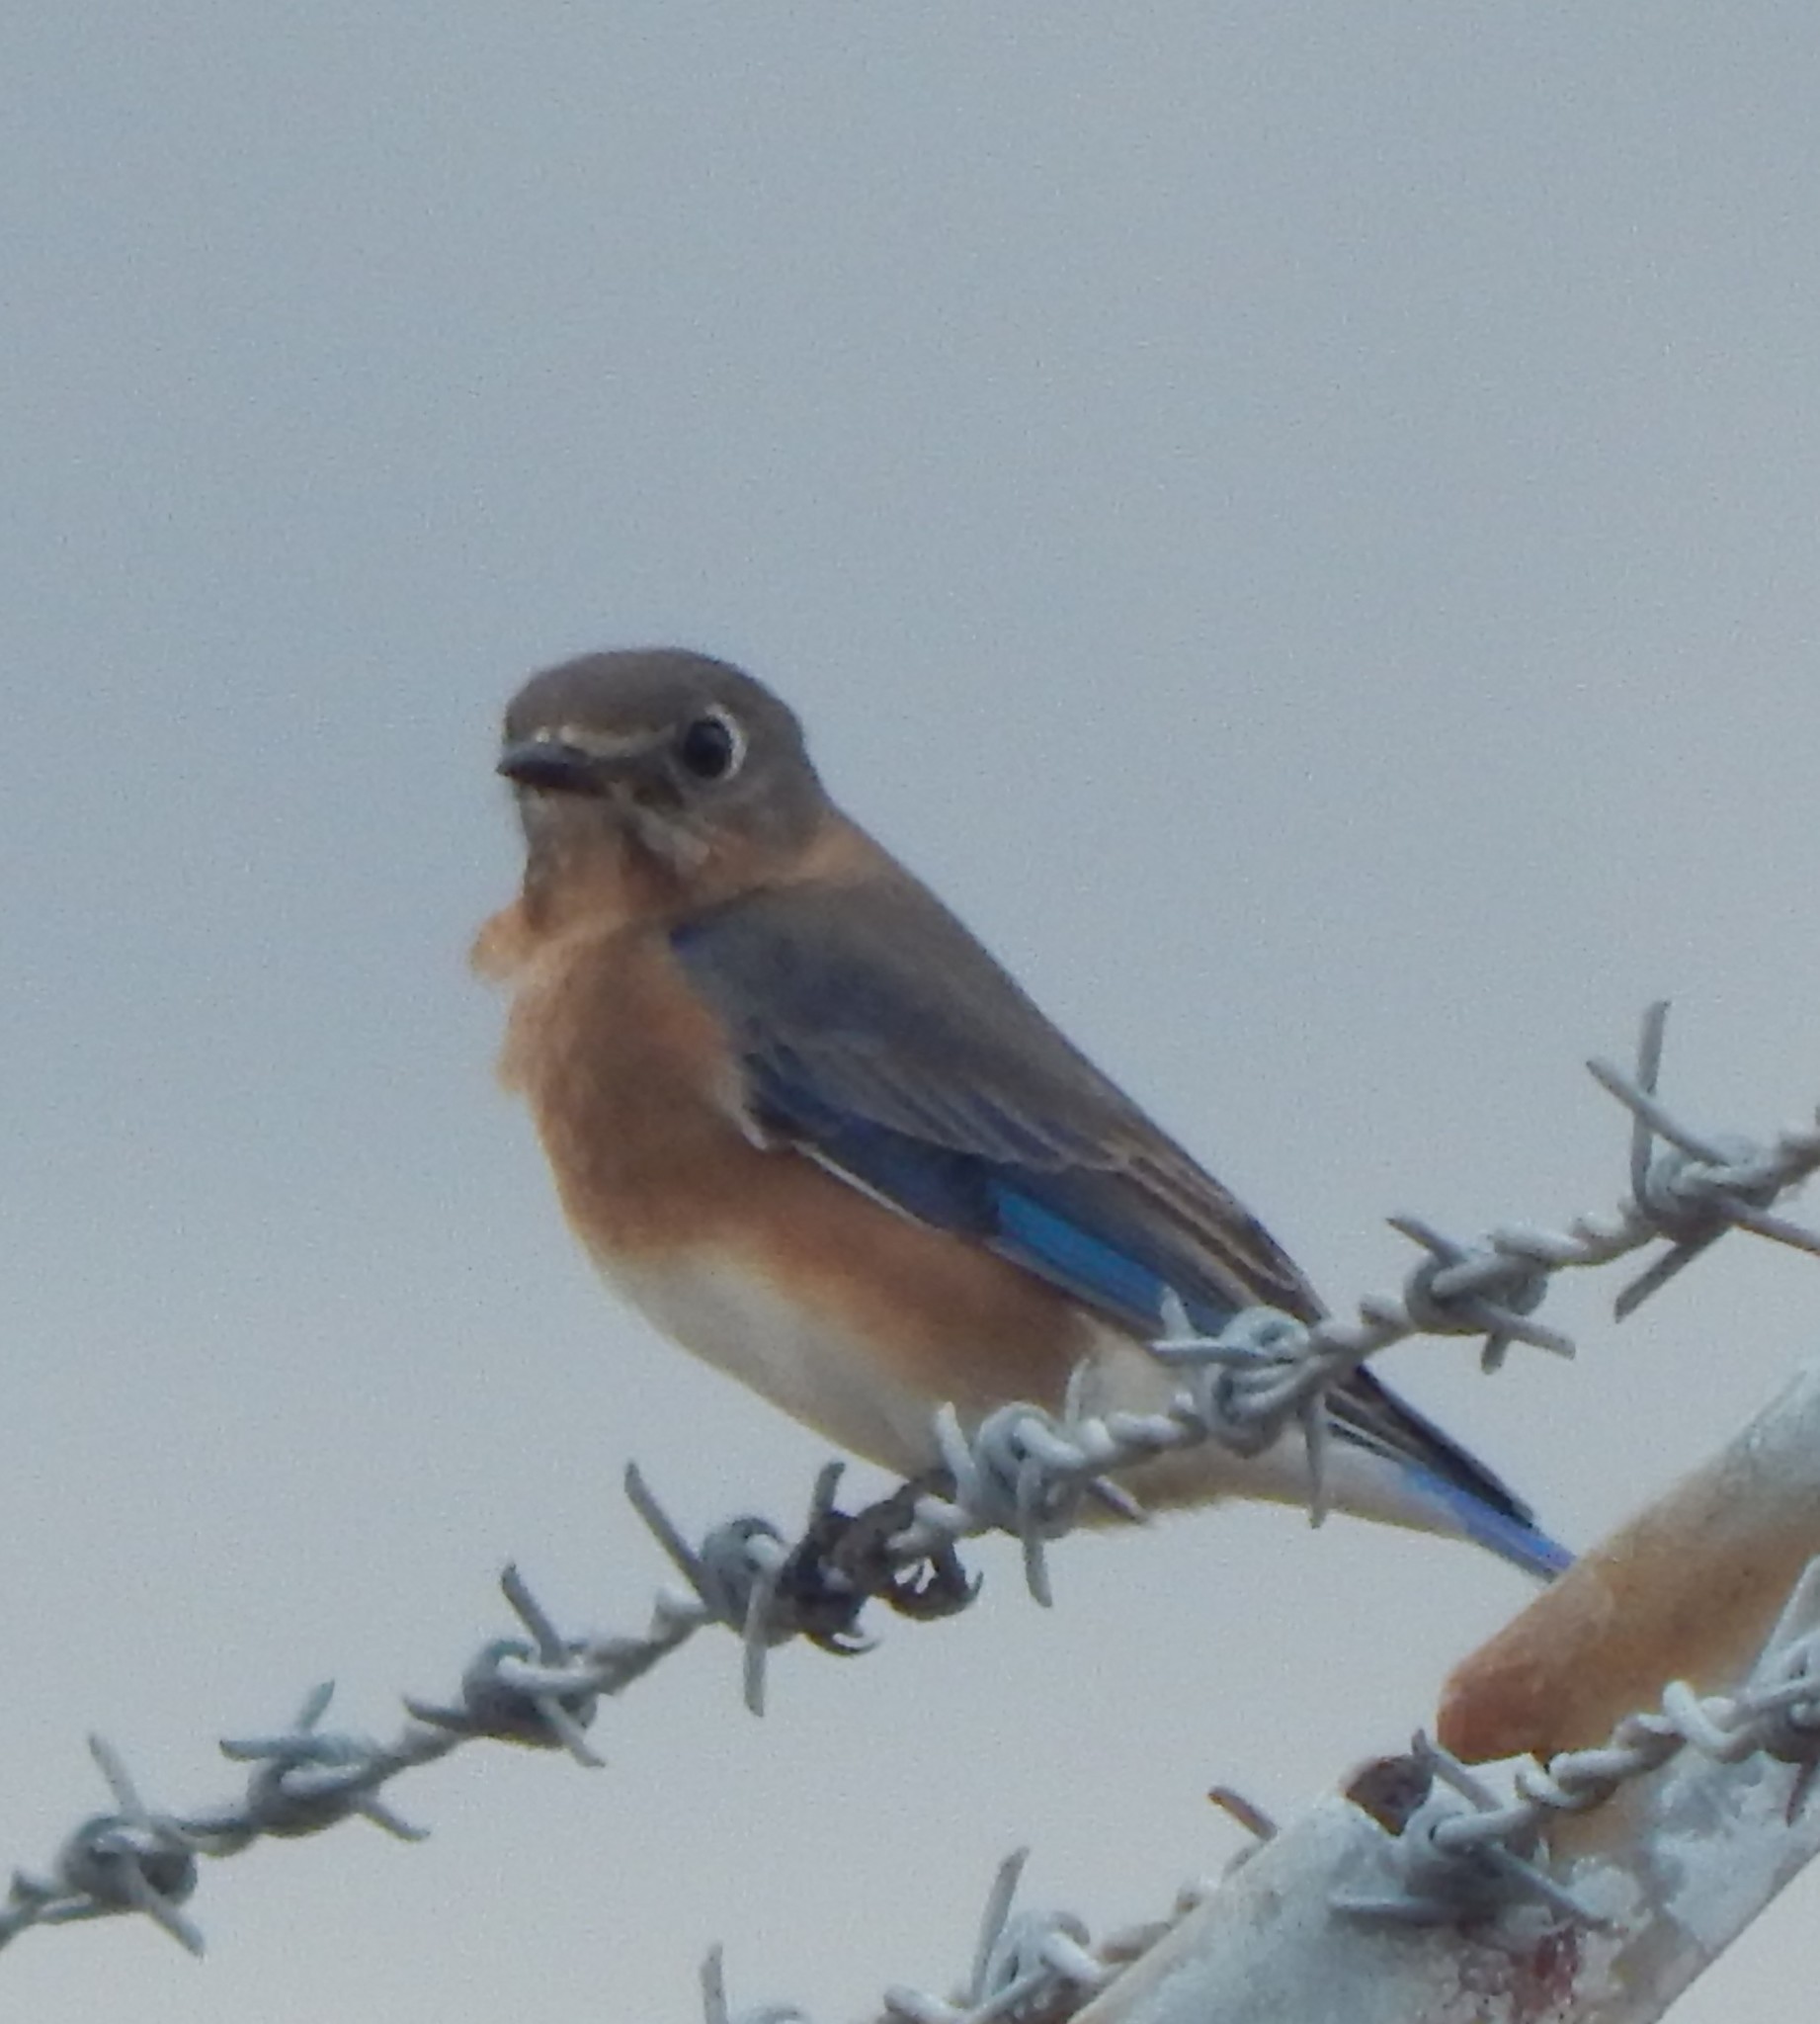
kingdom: Animalia
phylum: Chordata
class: Aves
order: Passeriformes
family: Turdidae
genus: Sialia
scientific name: Sialia sialis
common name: Eastern bluebird
